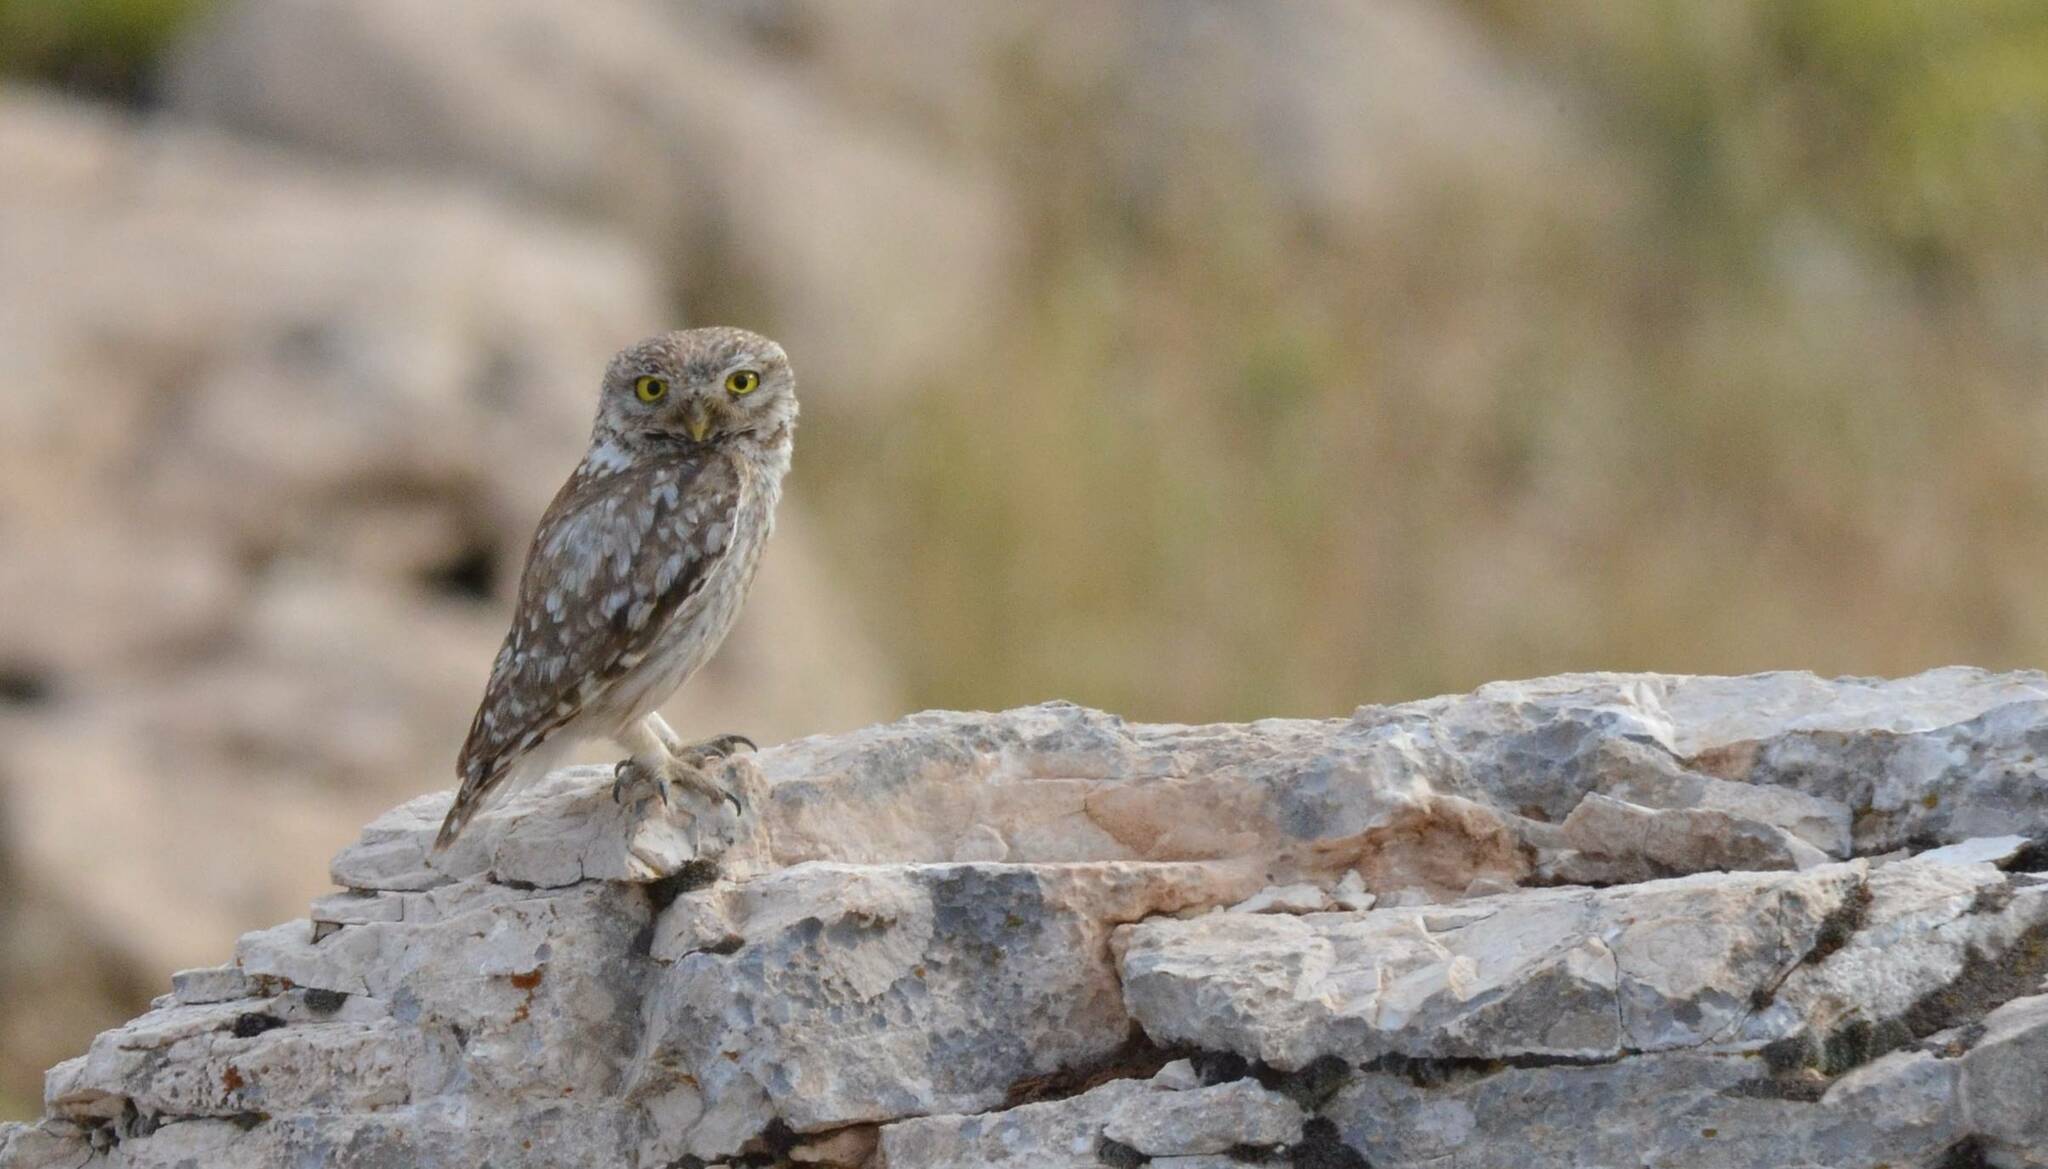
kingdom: Animalia
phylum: Chordata
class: Aves
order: Strigiformes
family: Strigidae
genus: Athene
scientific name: Athene noctua
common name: Little owl
